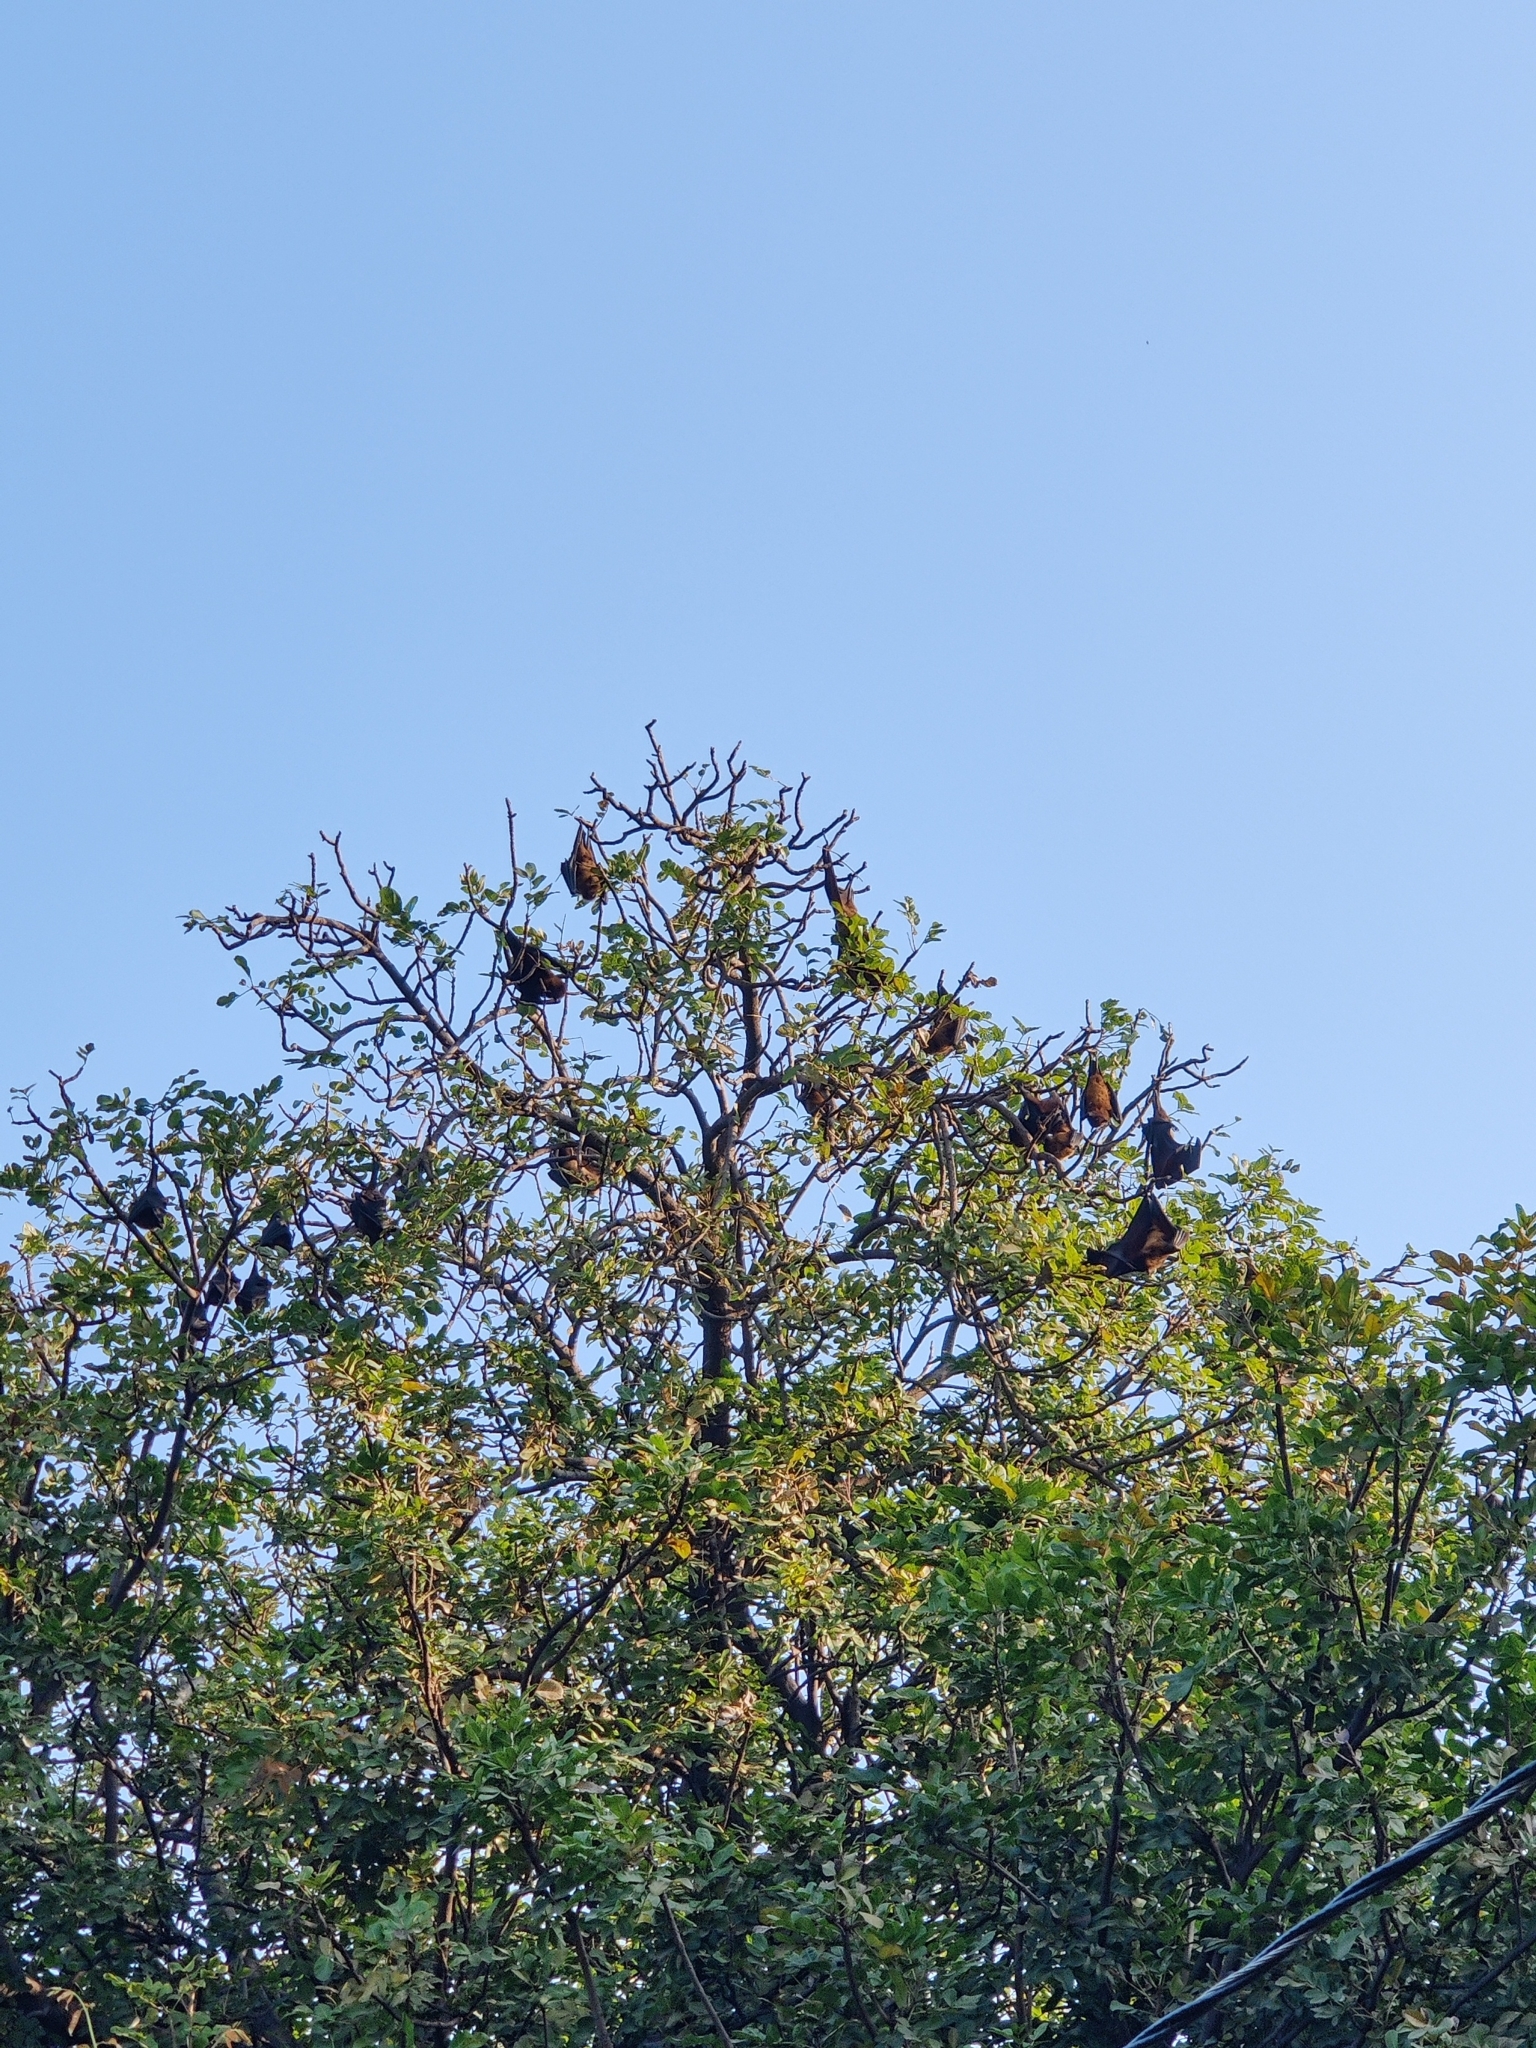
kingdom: Animalia
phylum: Chordata
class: Mammalia
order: Chiroptera
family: Pteropodidae
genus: Pteropus
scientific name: Pteropus vampyrus
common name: Large flying fox
